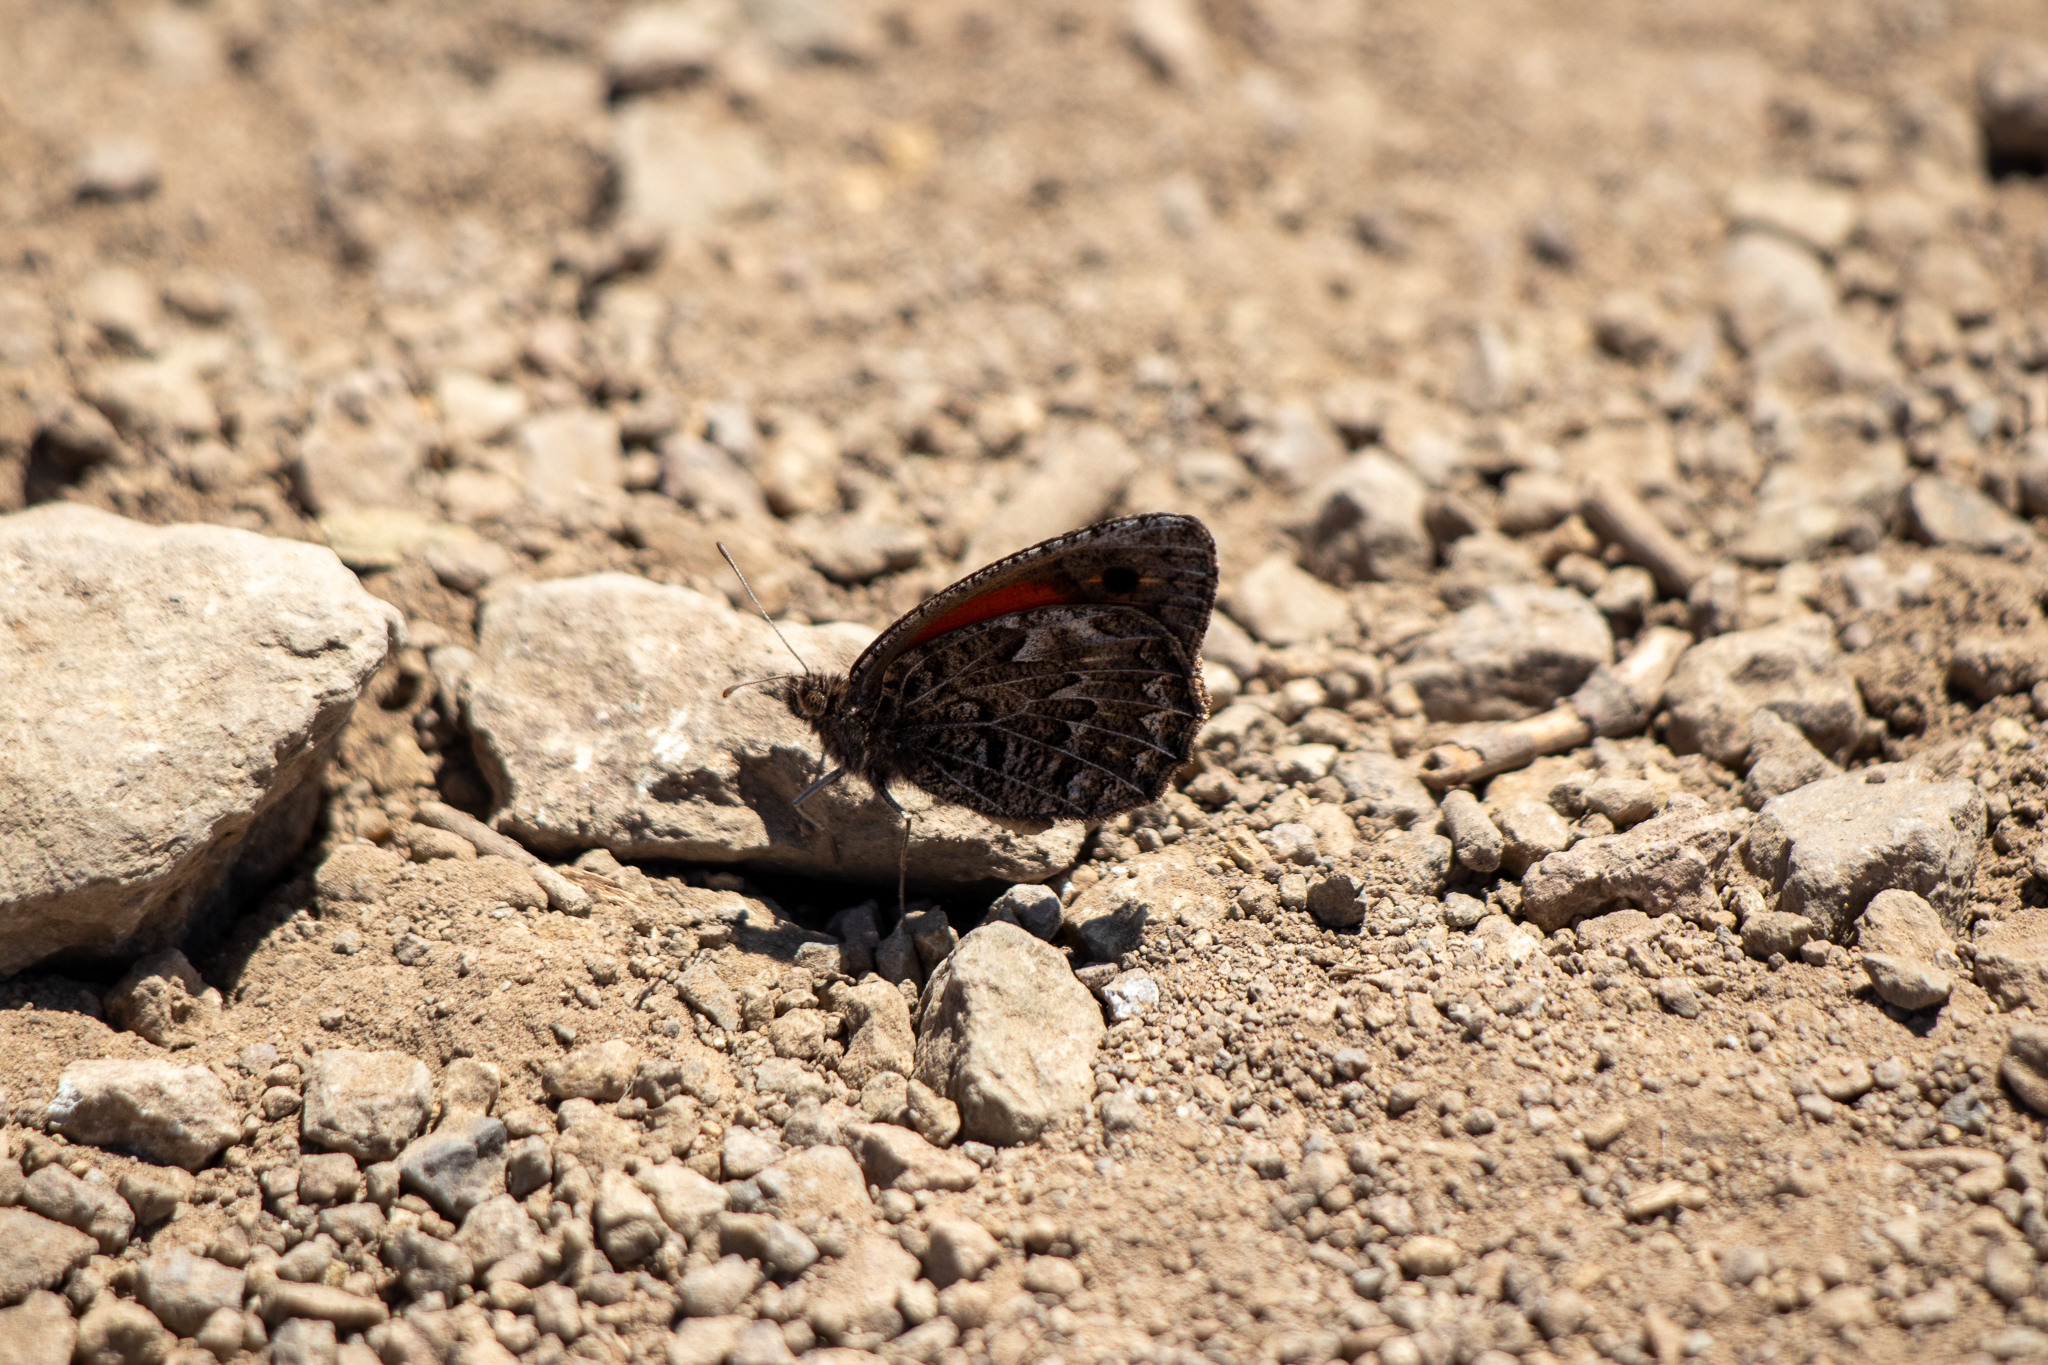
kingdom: Animalia
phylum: Arthropoda
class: Insecta
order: Lepidoptera
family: Nymphalidae
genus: Argyrophorus
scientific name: Argyrophorus
